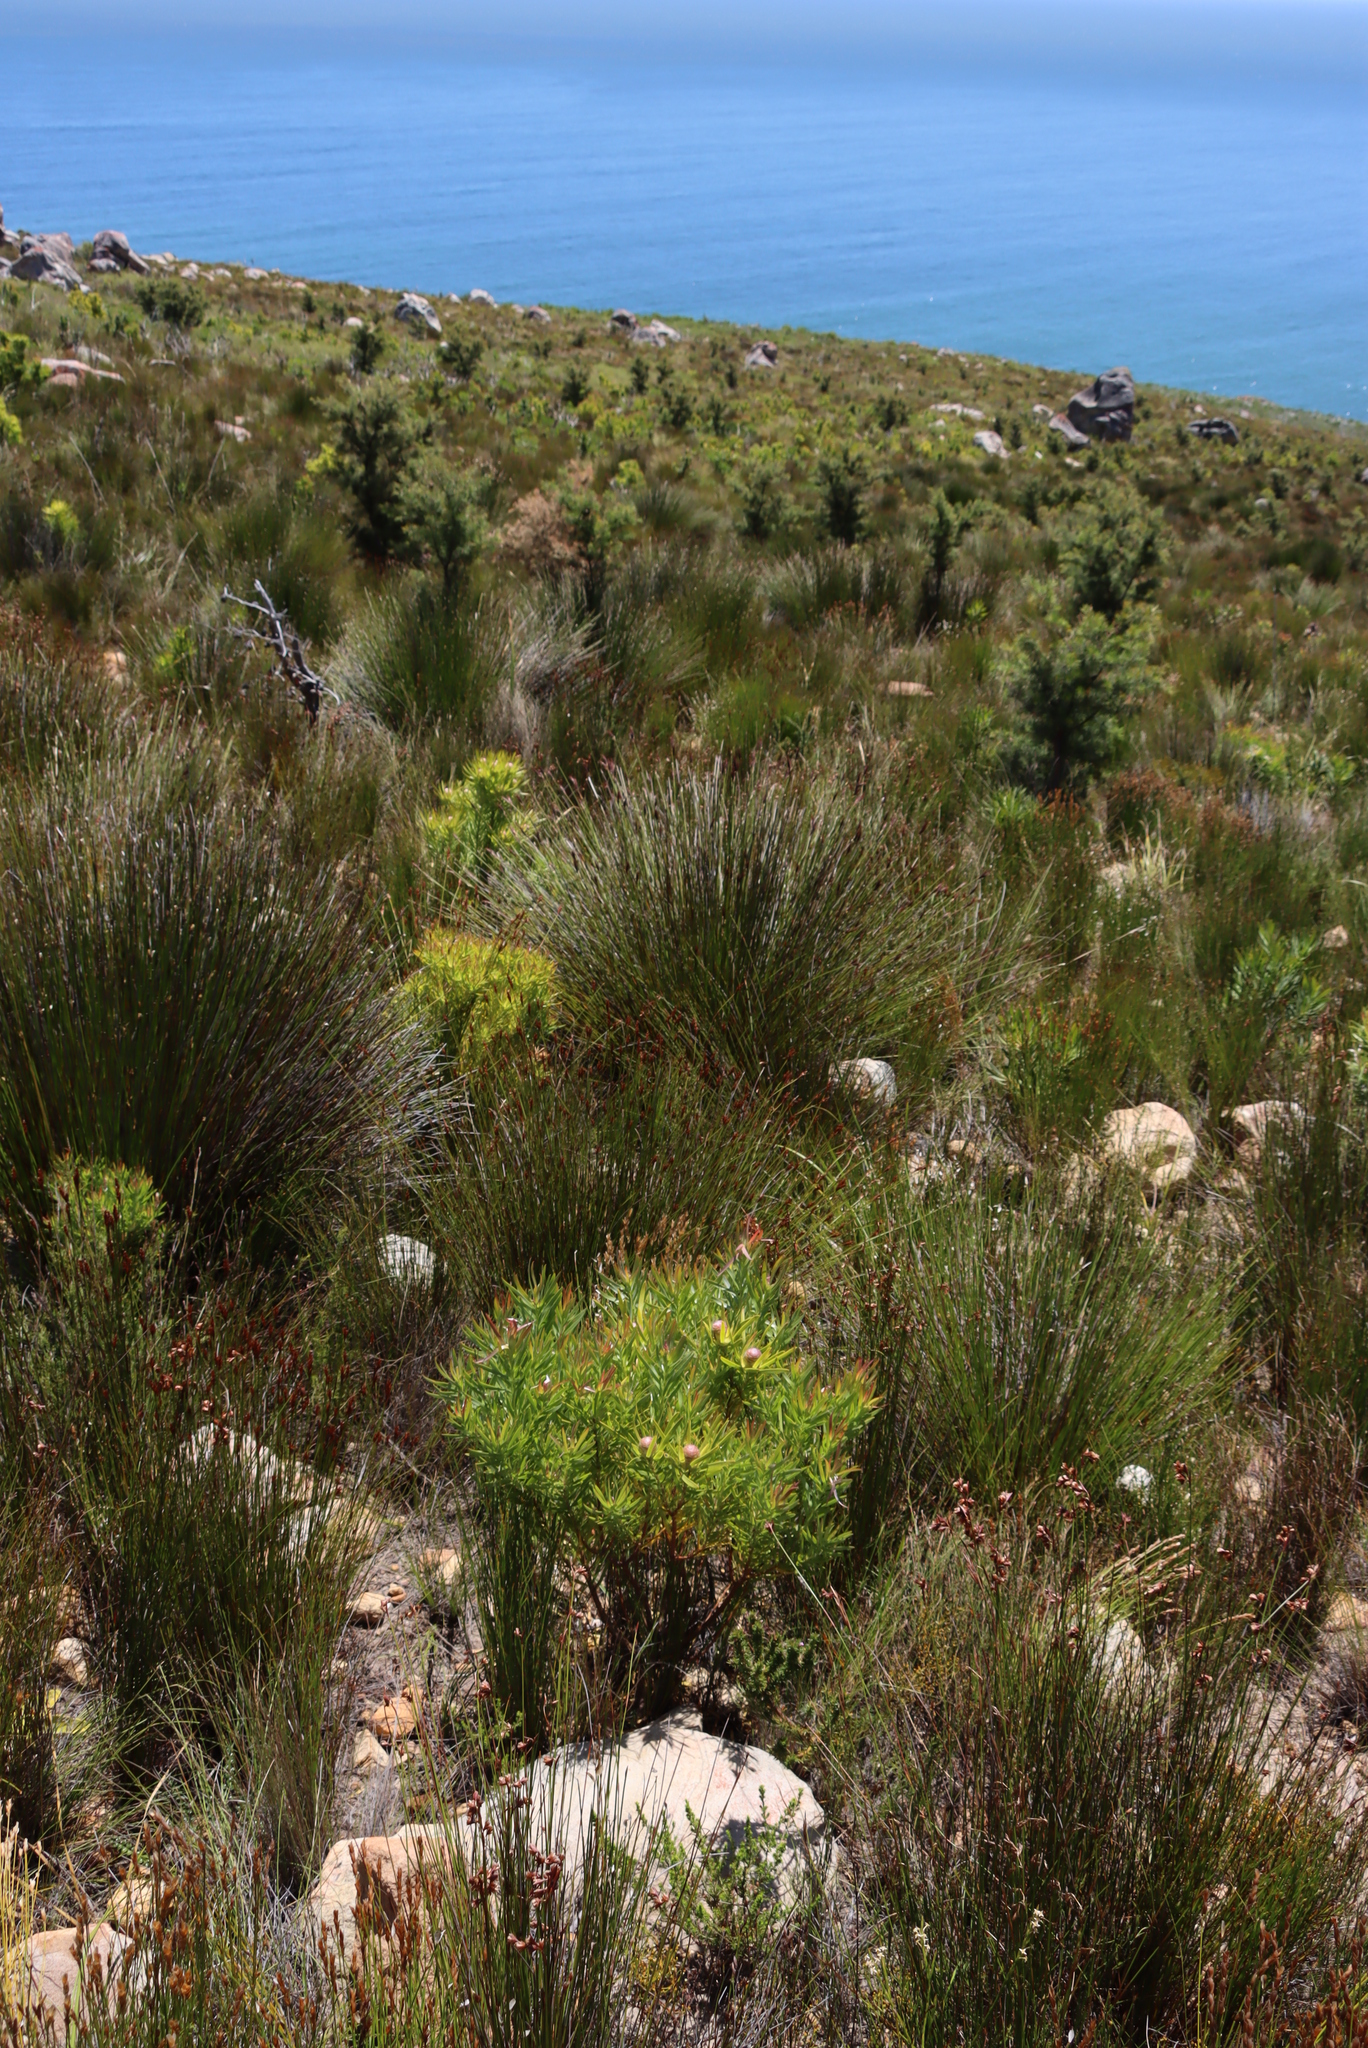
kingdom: Plantae
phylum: Tracheophyta
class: Magnoliopsida
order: Proteales
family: Proteaceae
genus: Leucadendron
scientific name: Leucadendron xanthoconus
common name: Sickle-leaf conebush
